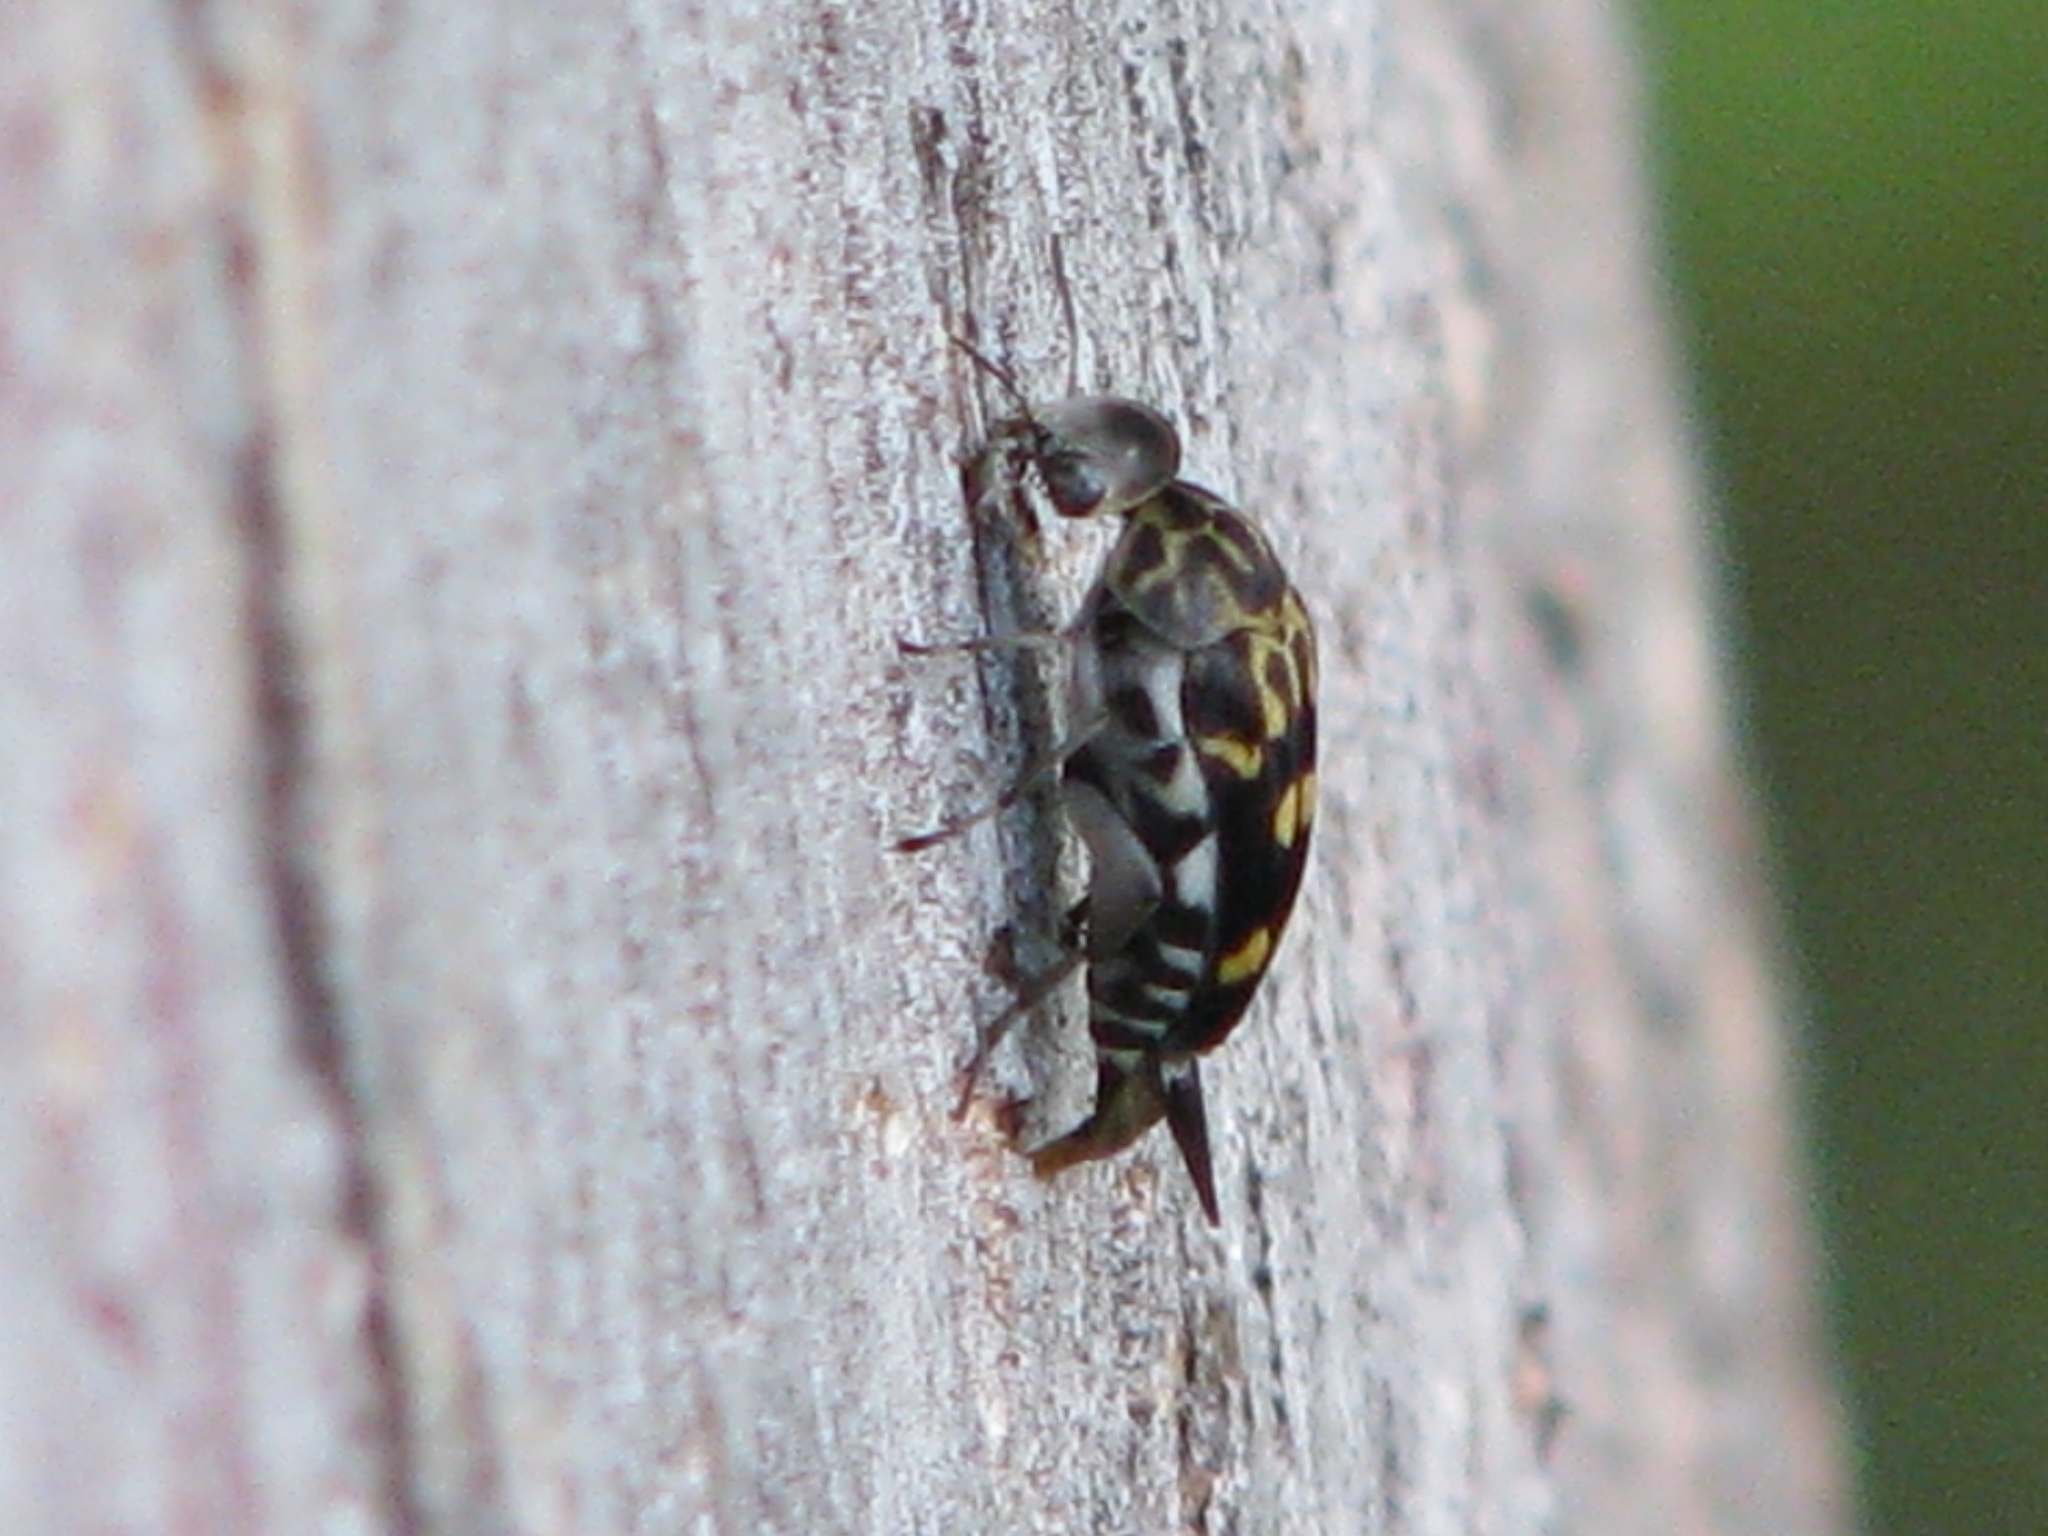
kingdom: Animalia
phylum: Arthropoda
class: Insecta
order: Coleoptera
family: Mordellidae
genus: Hoshihananomia
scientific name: Hoshihananomia octopunctata
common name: Eight-spotted tumbling flower beetle
